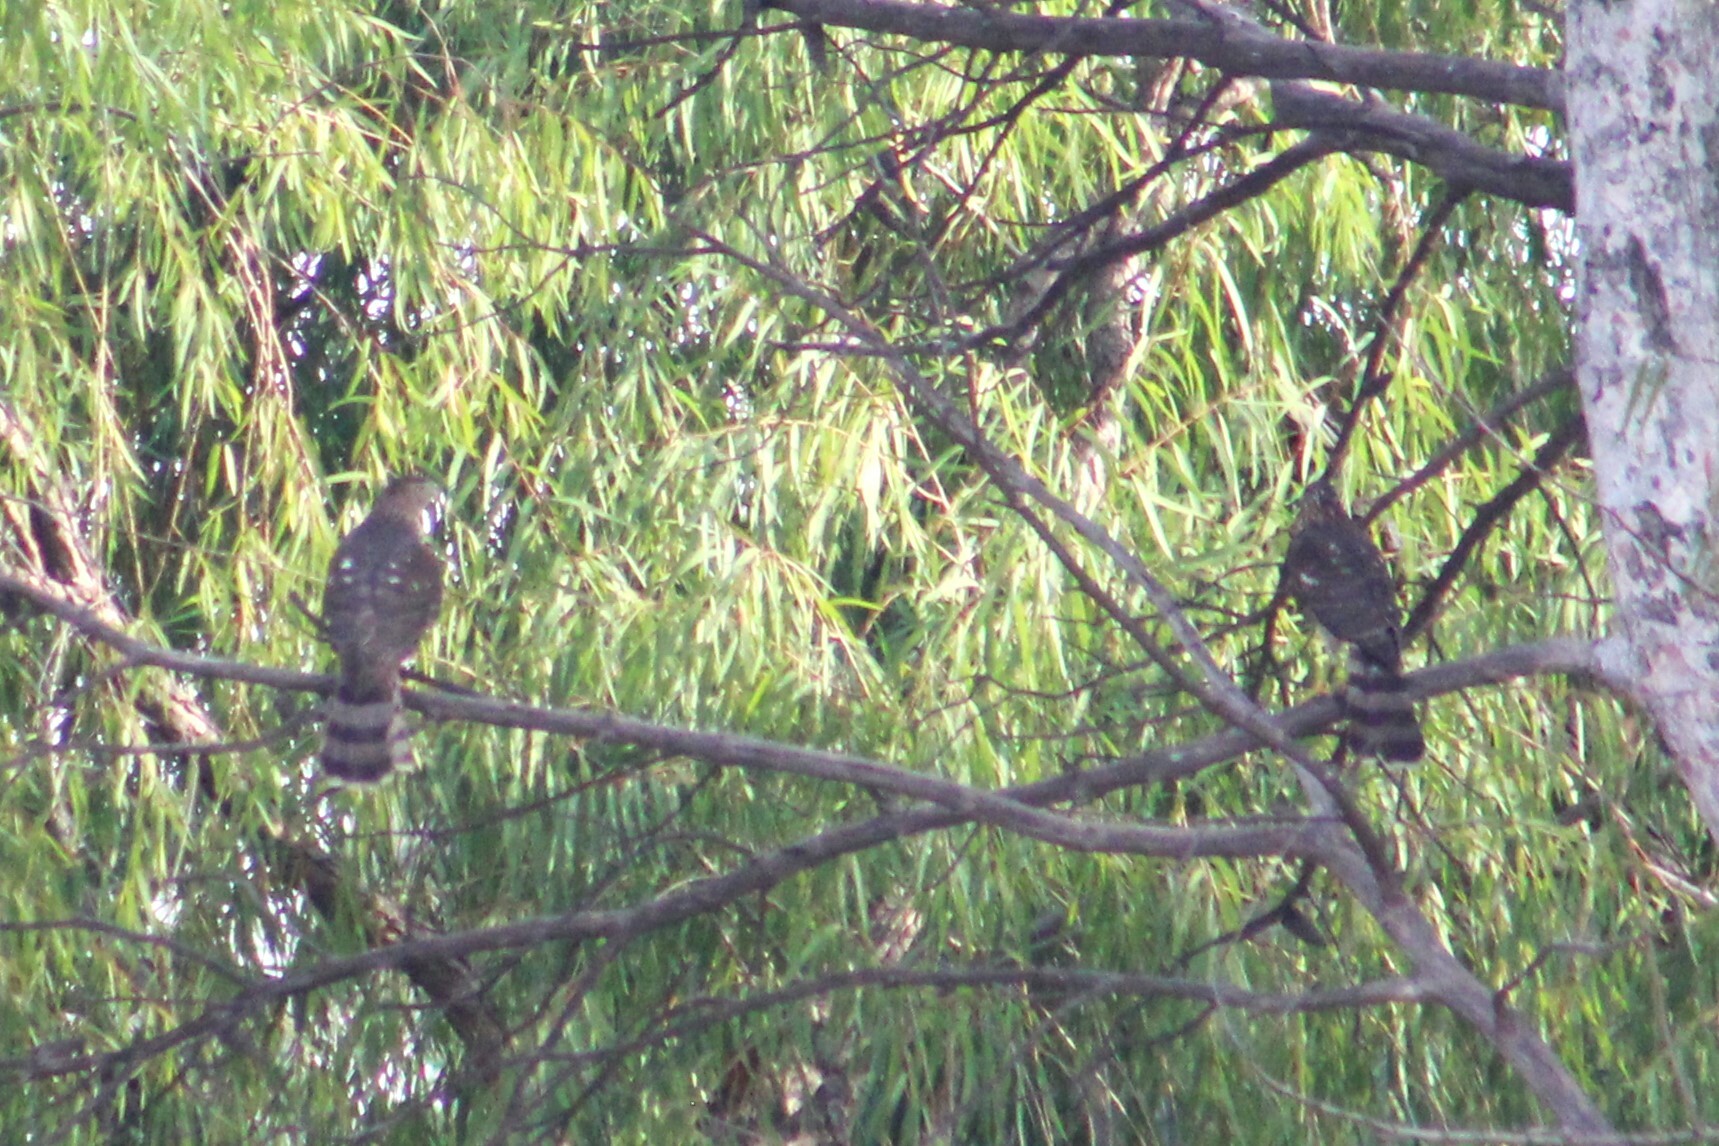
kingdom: Animalia
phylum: Chordata
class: Aves
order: Accipitriformes
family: Accipitridae
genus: Accipiter
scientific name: Accipiter cooperii
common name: Cooper's hawk
